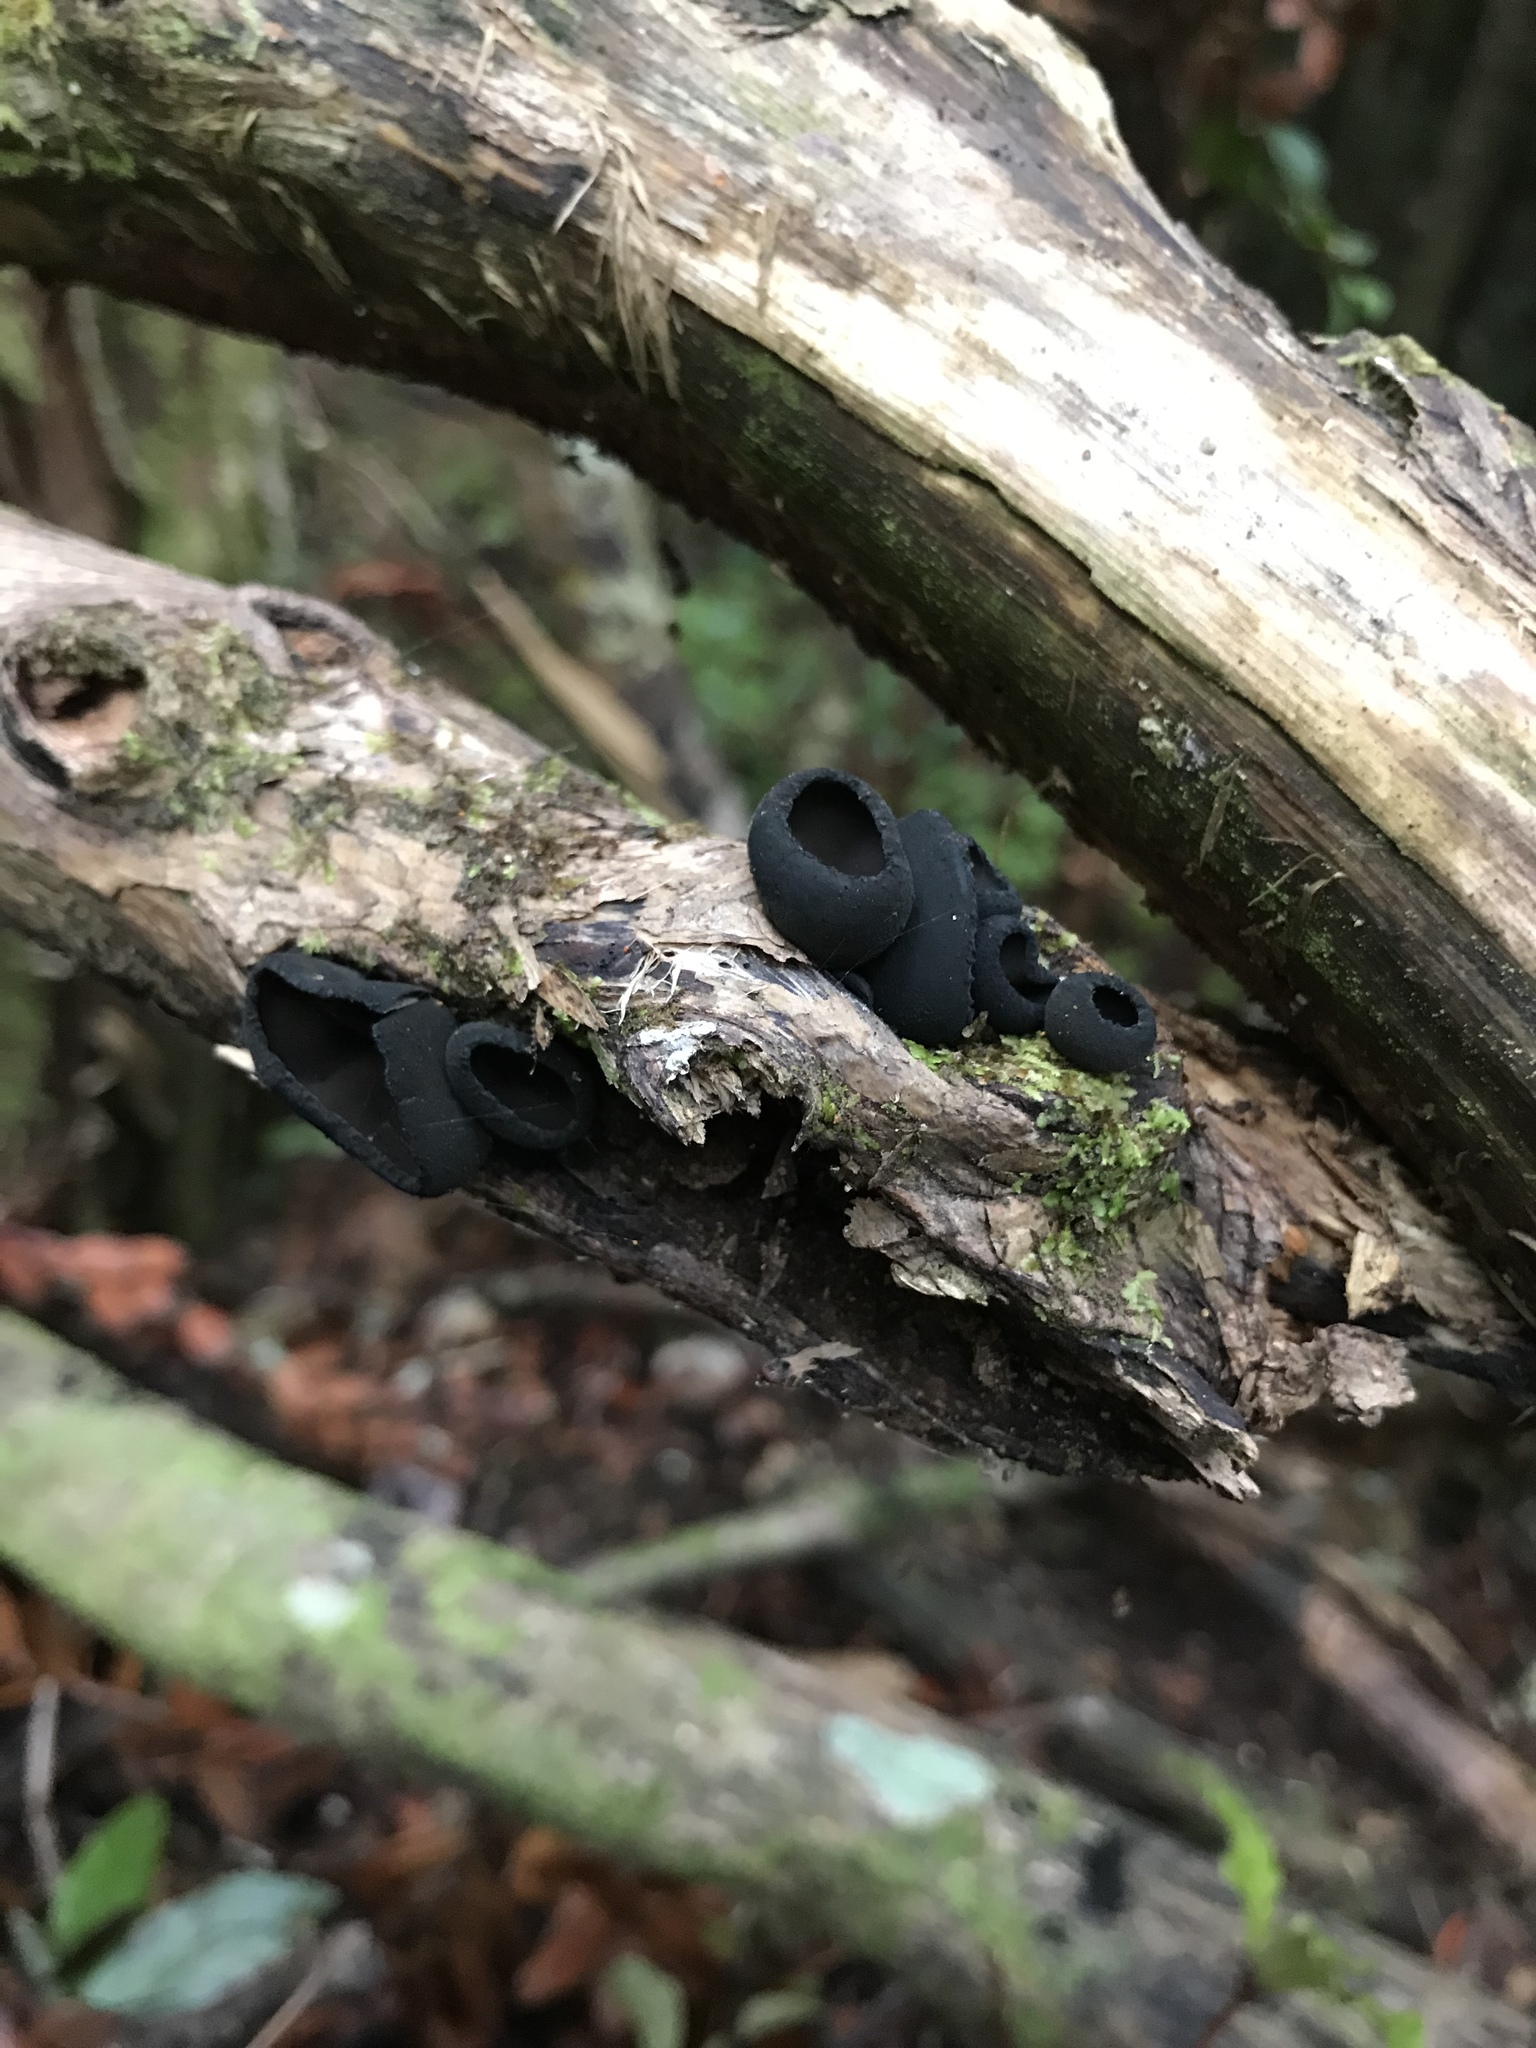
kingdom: Fungi
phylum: Ascomycota
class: Pezizomycetes
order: Pezizales
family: Sarcosomataceae
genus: Plectania
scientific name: Plectania campylospora
